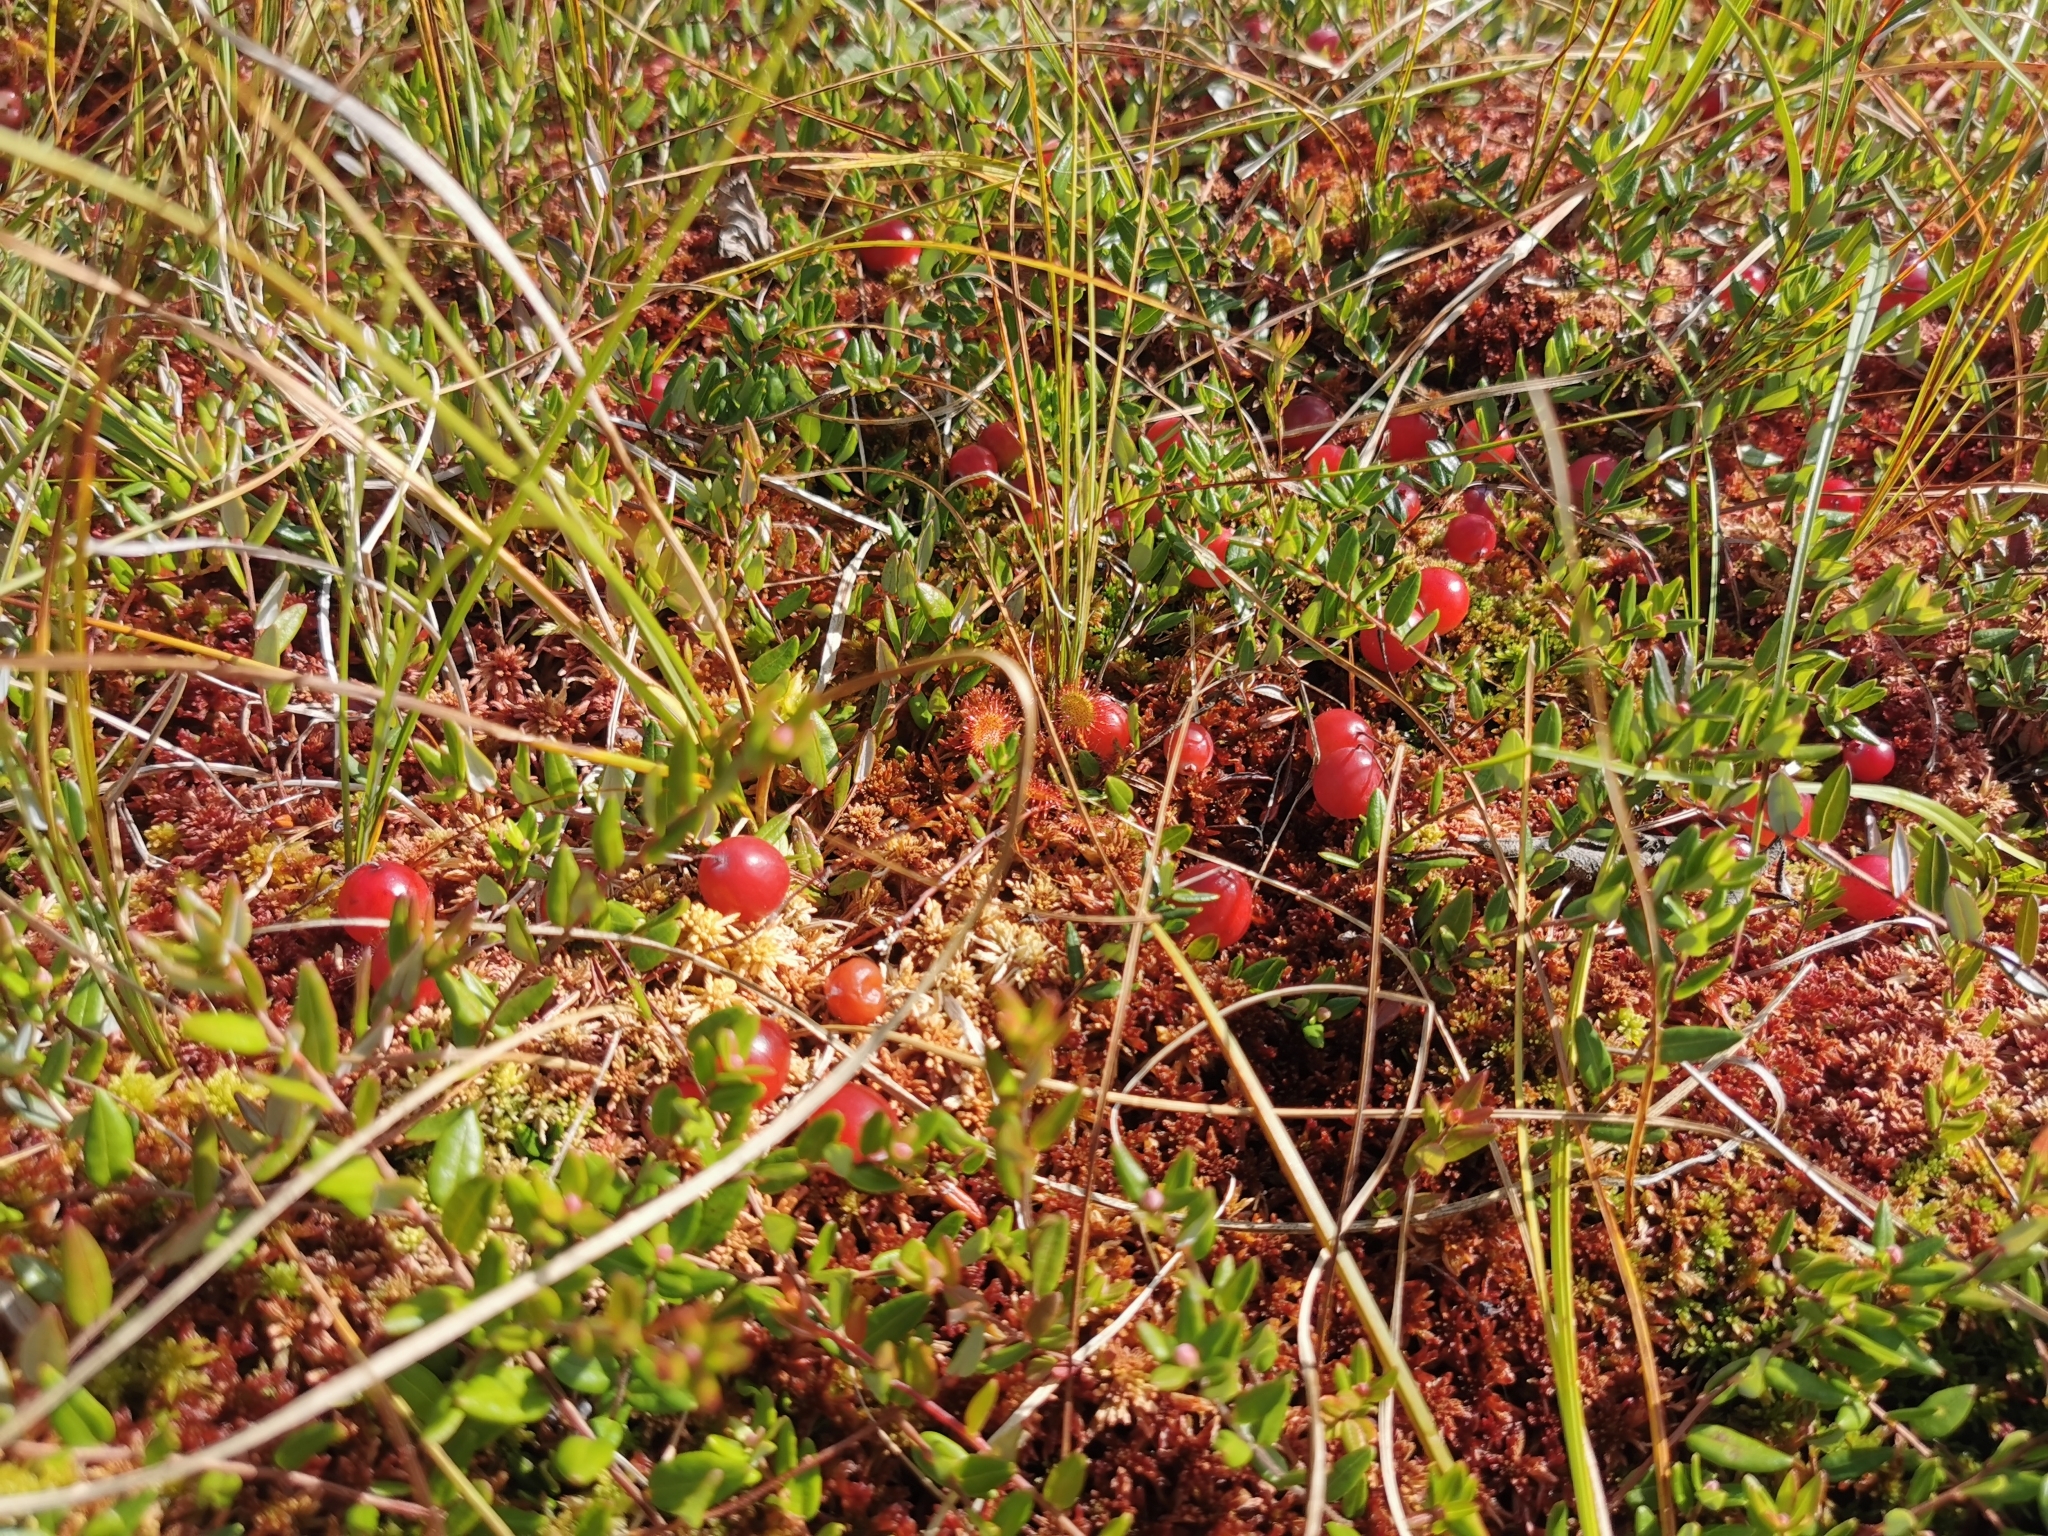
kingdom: Plantae
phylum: Tracheophyta
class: Magnoliopsida
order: Ericales
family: Ericaceae
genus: Vaccinium
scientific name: Vaccinium oxycoccos
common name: Cranberry
